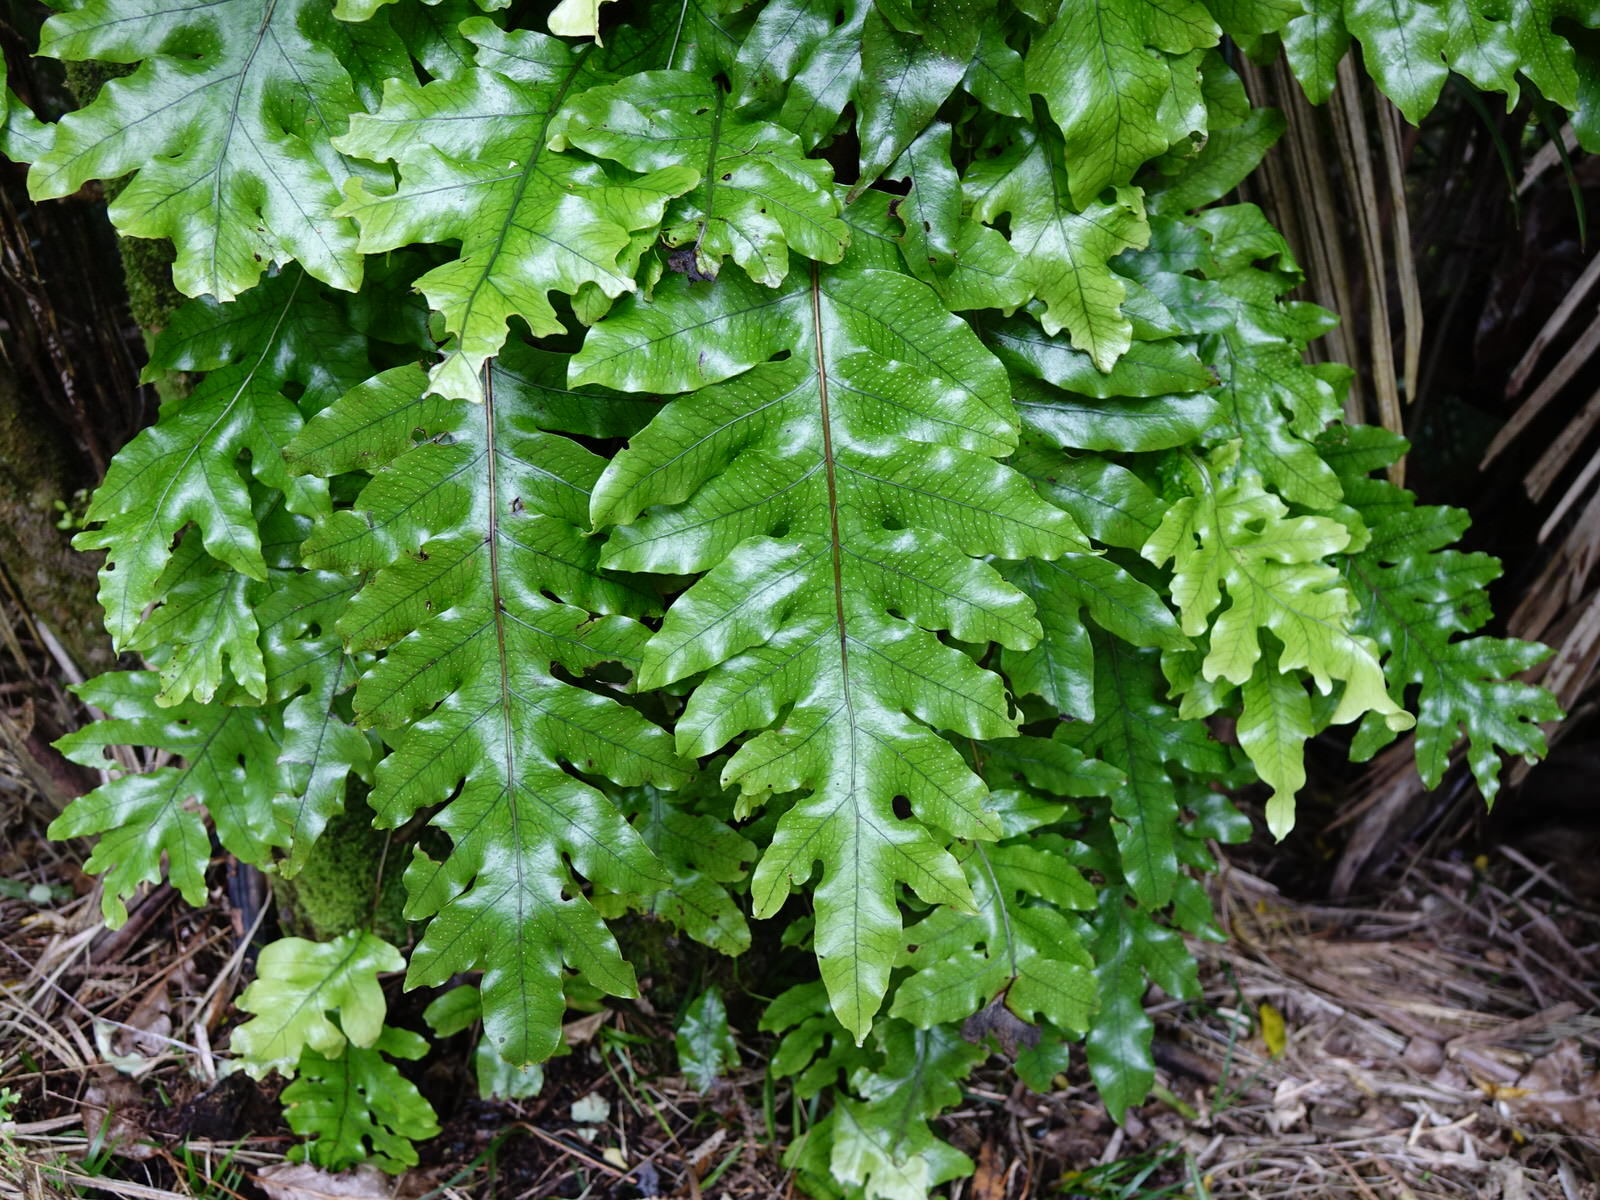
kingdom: Plantae
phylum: Tracheophyta
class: Polypodiopsida
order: Polypodiales
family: Polypodiaceae
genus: Lecanopteris
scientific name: Lecanopteris pustulata
